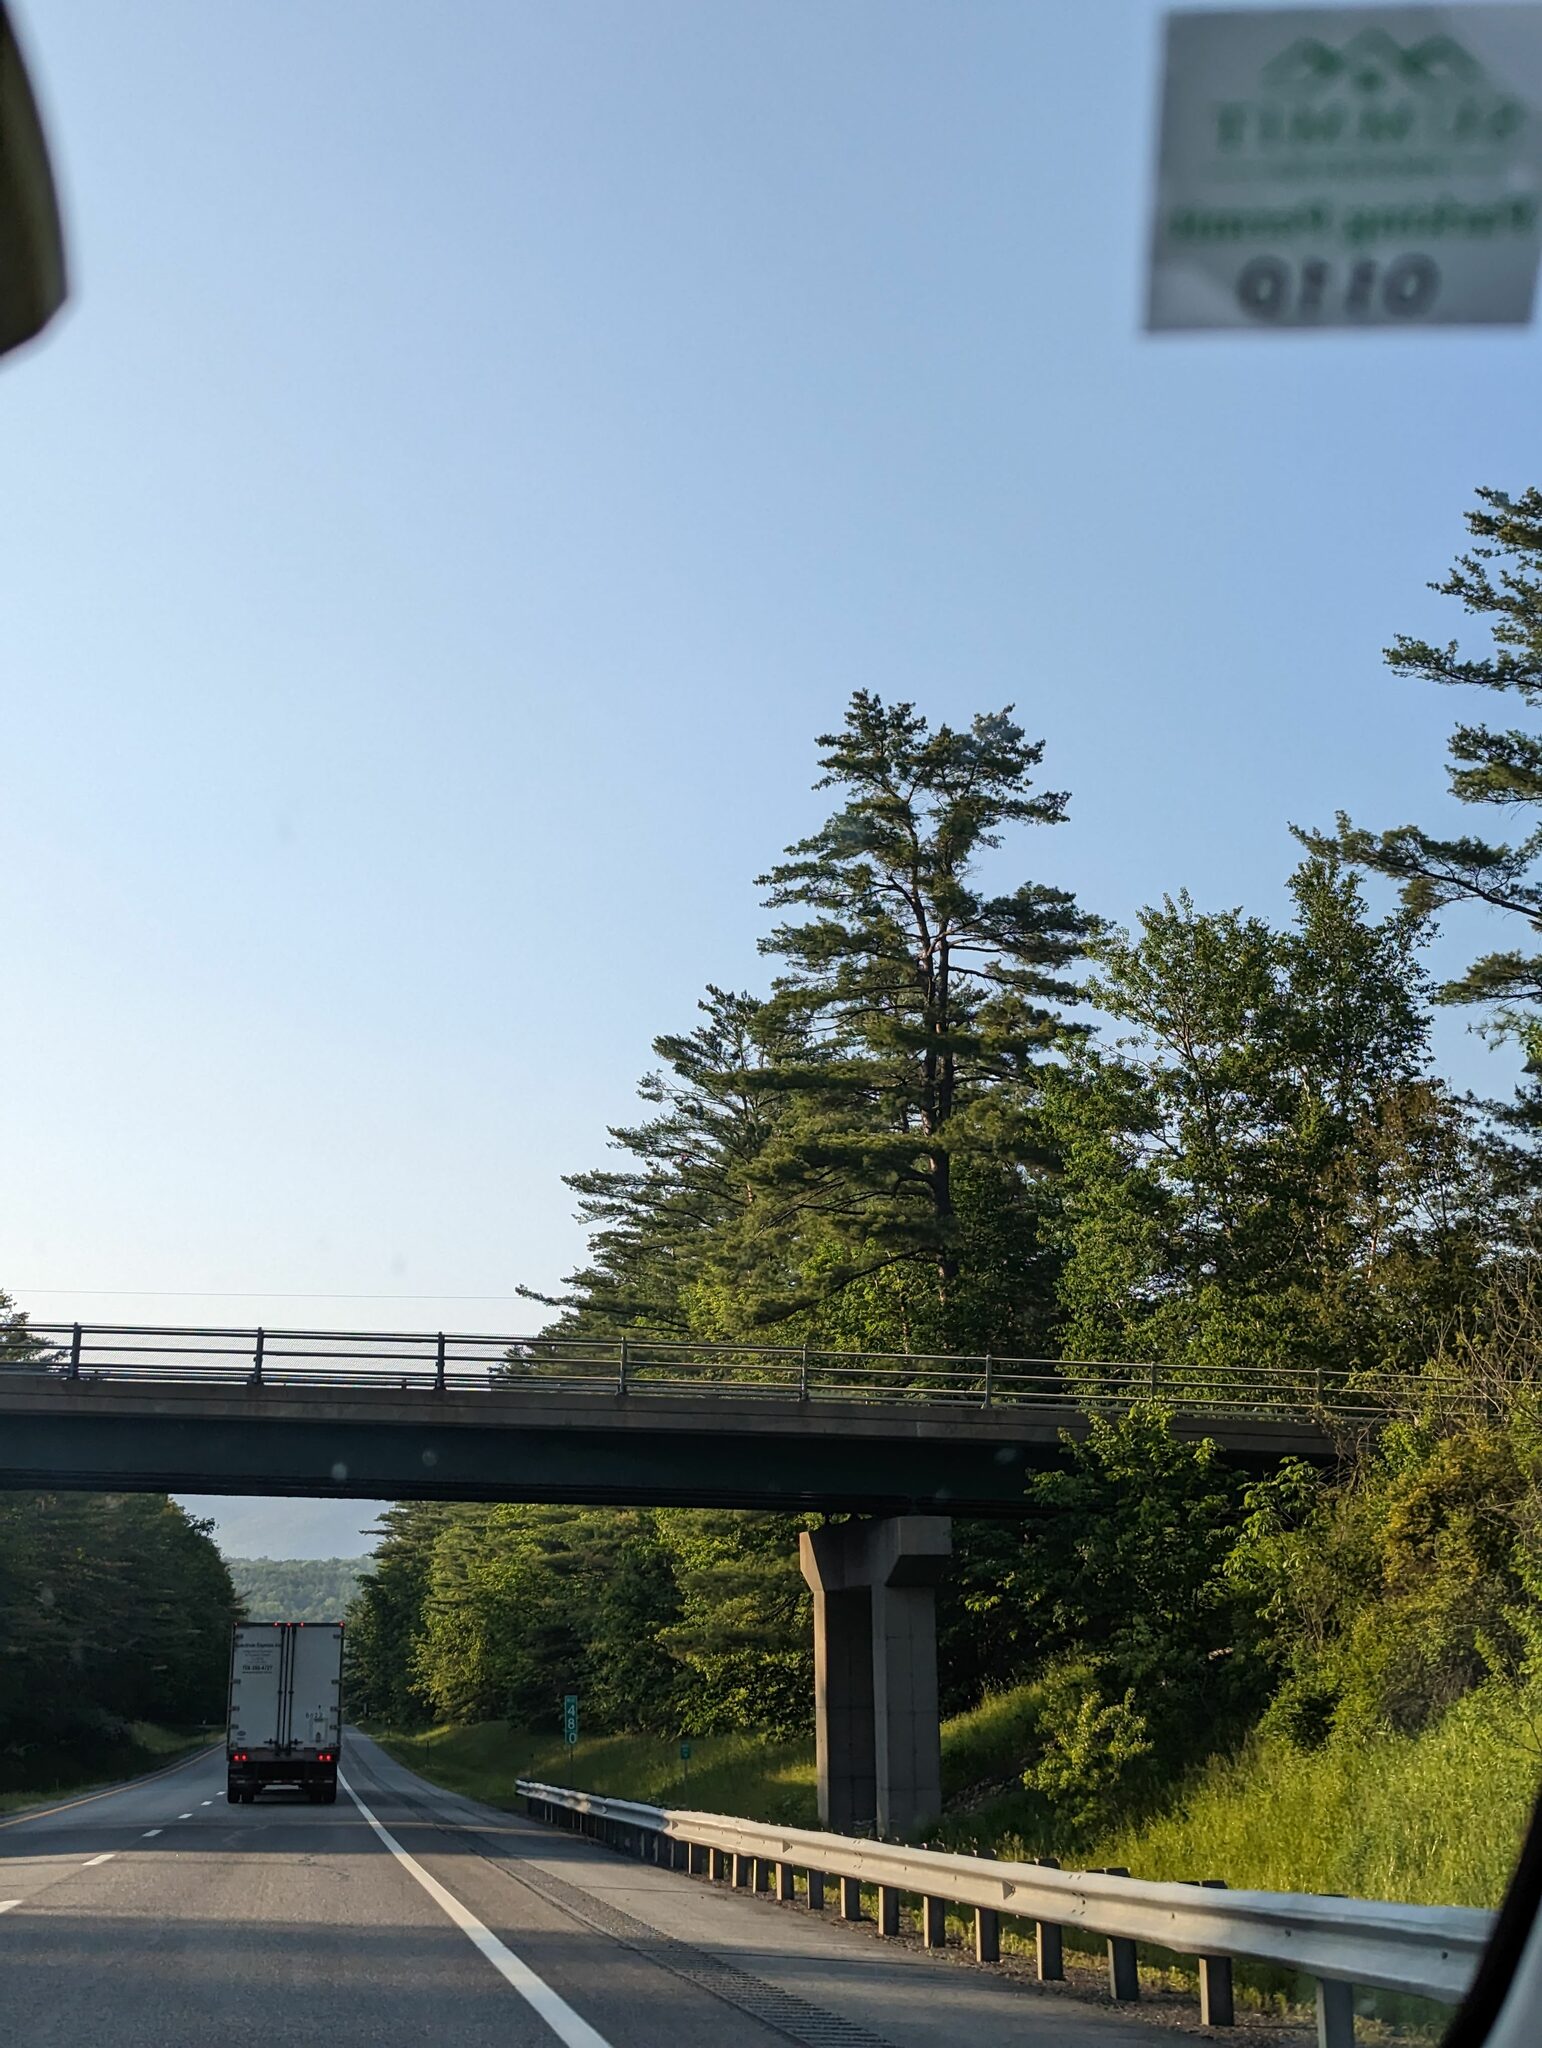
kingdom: Plantae
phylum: Tracheophyta
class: Pinopsida
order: Pinales
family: Pinaceae
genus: Pinus
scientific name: Pinus strobus
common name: Weymouth pine
